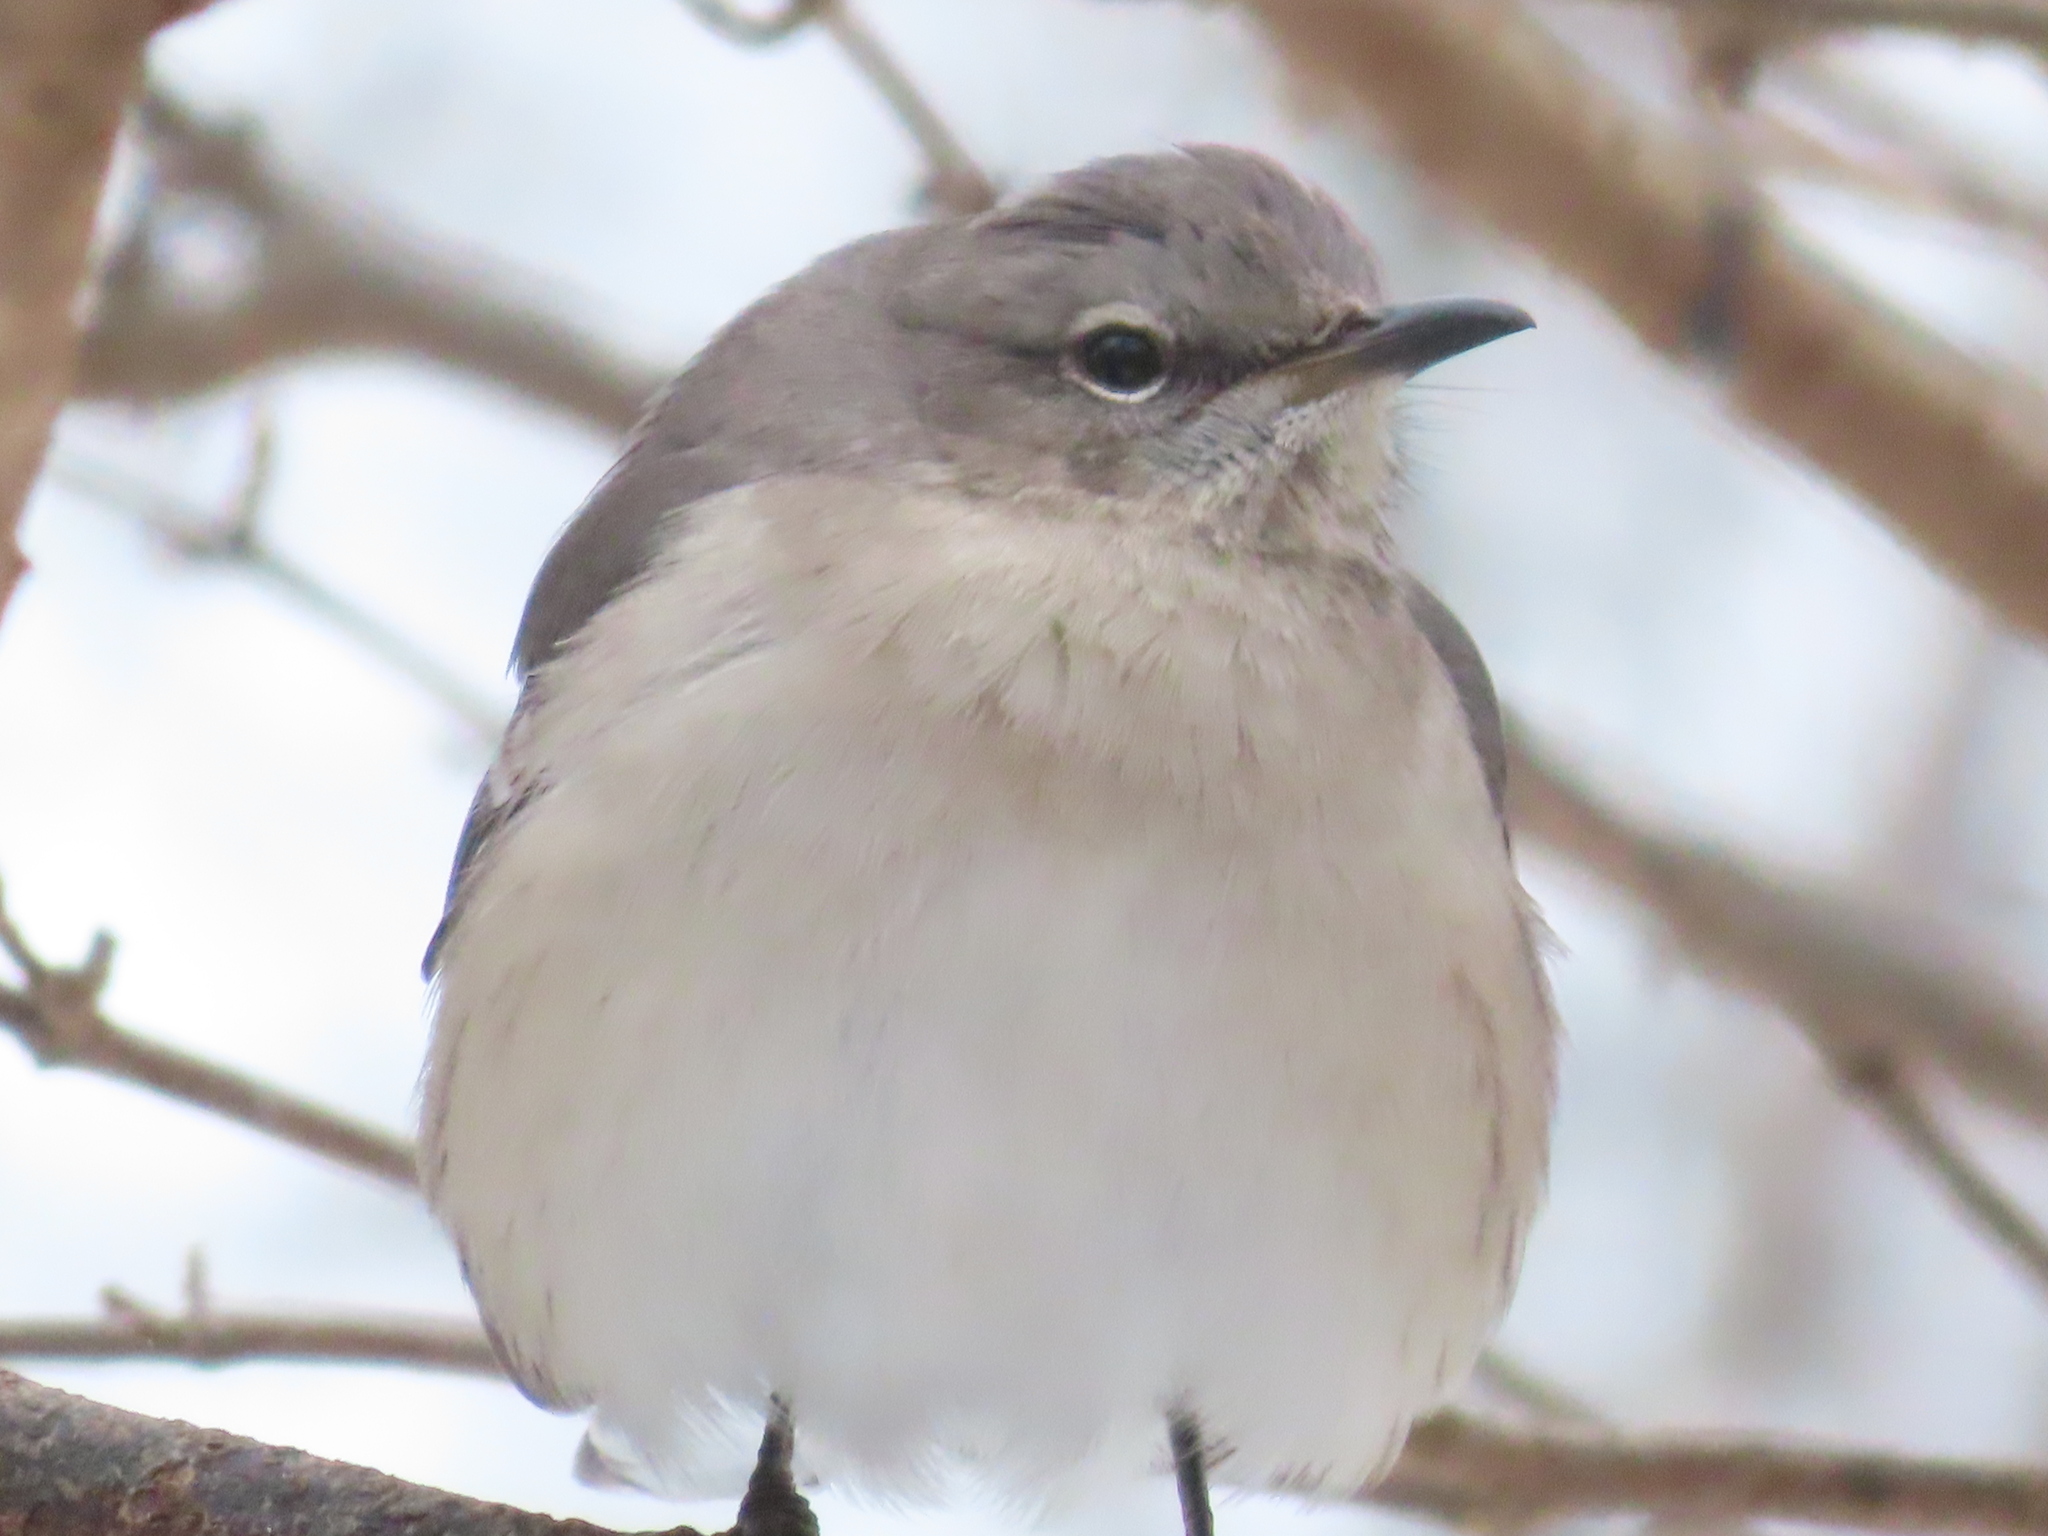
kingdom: Animalia
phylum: Chordata
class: Aves
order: Passeriformes
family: Mimidae
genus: Mimus
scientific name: Mimus polyglottos
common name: Northern mockingbird
